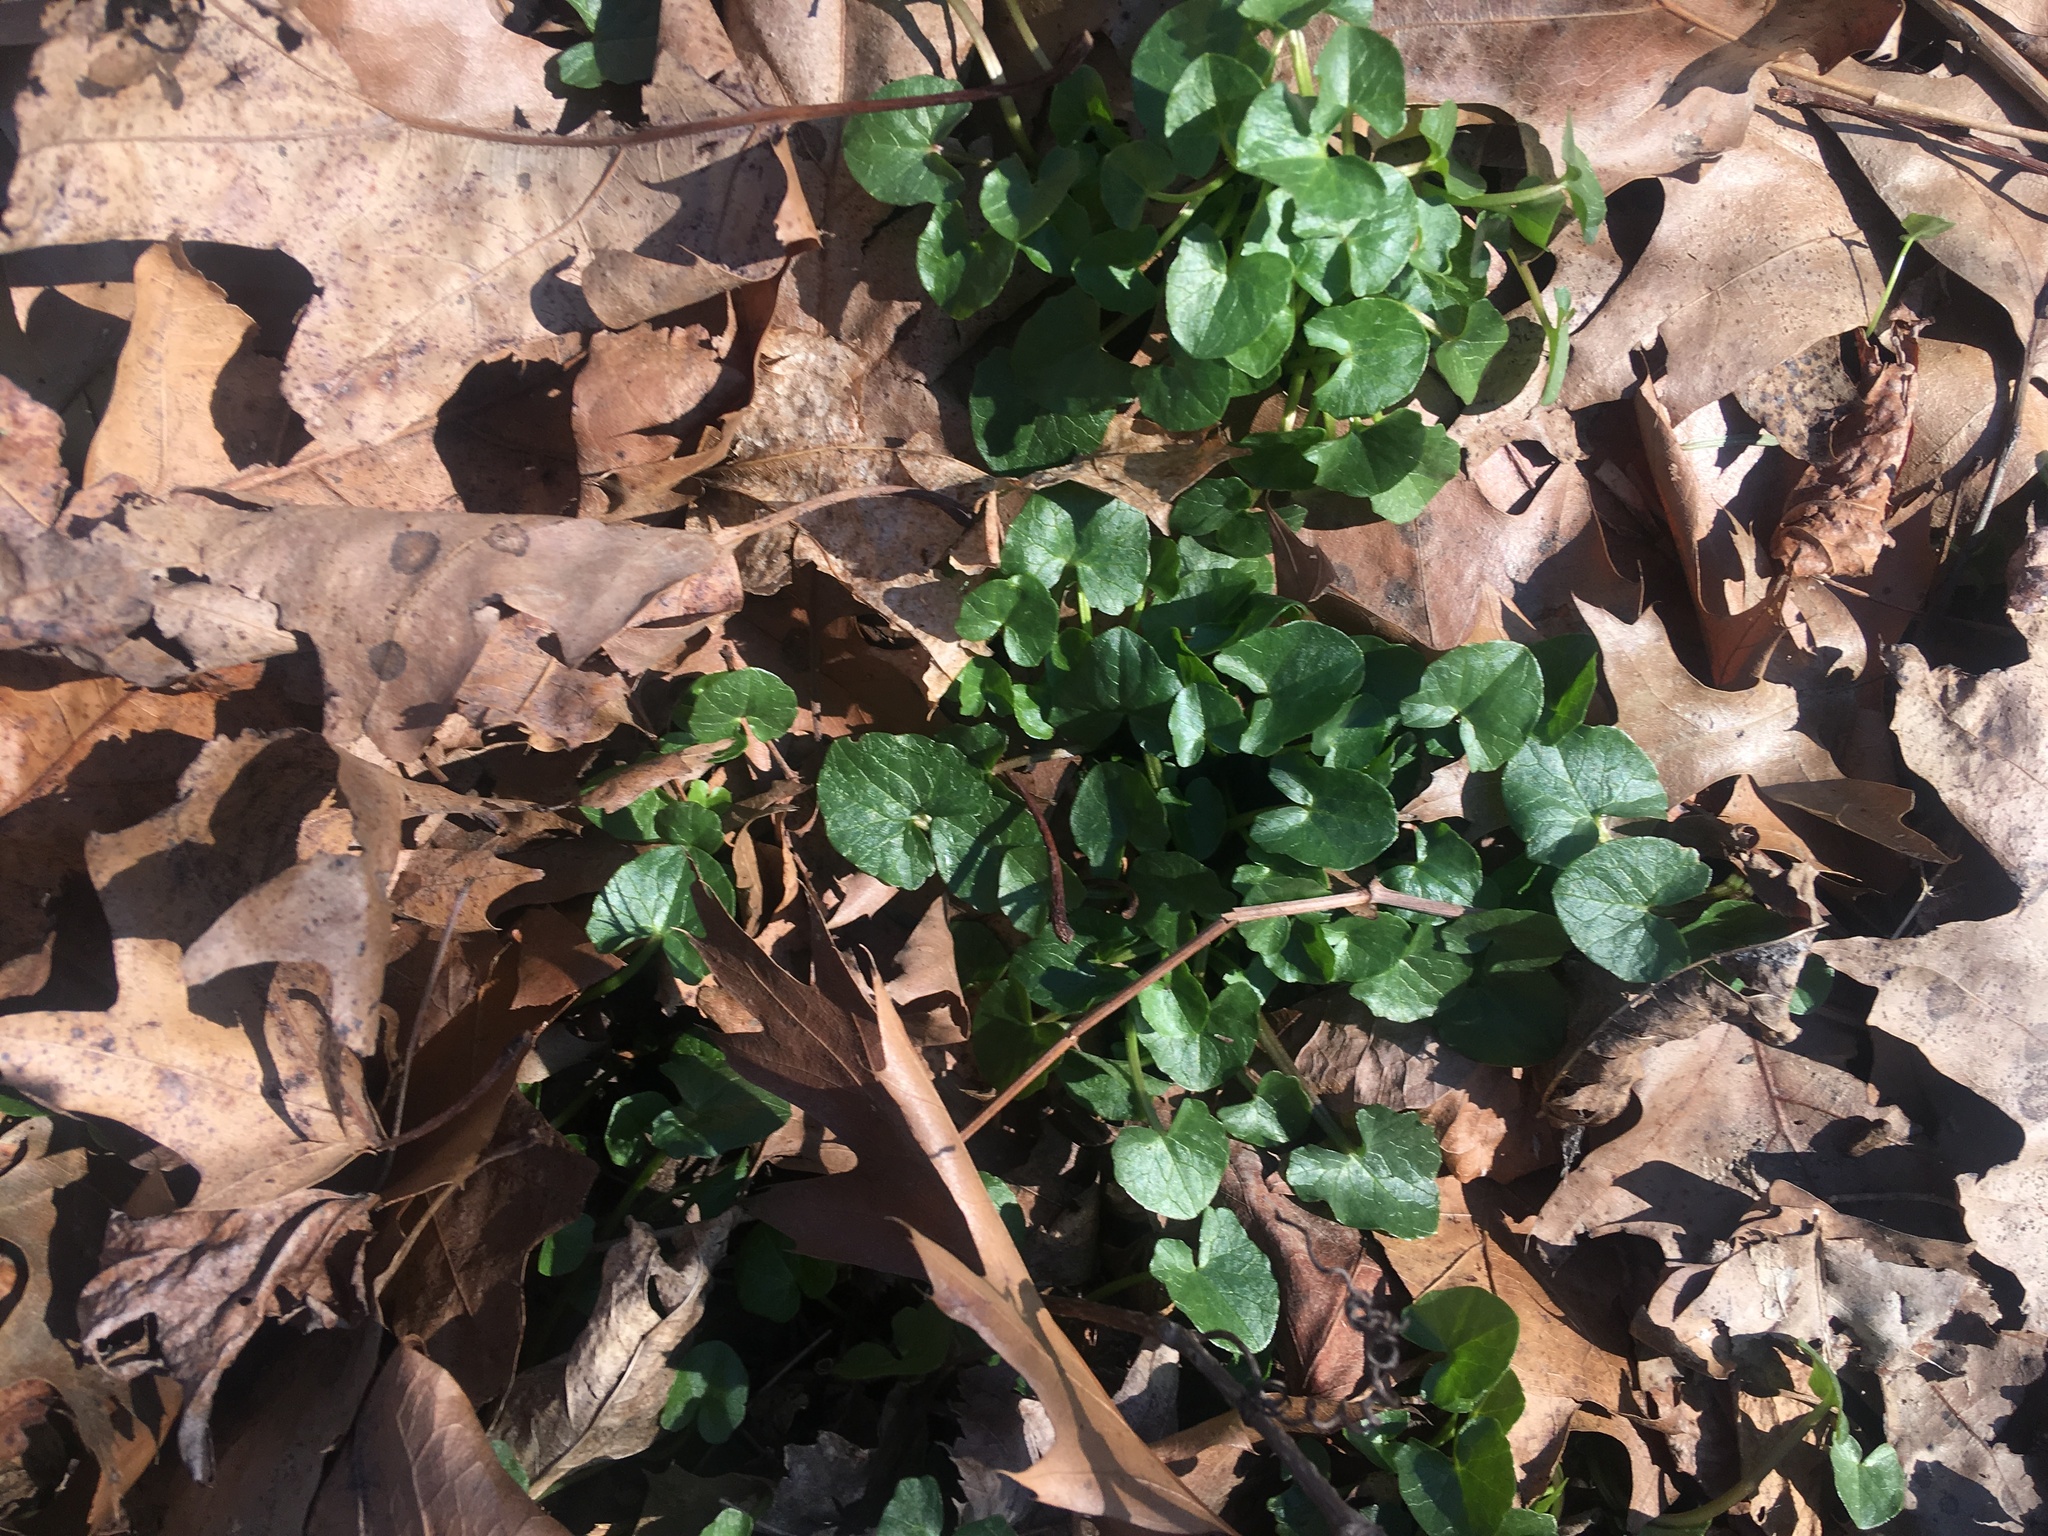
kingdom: Plantae
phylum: Tracheophyta
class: Magnoliopsida
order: Ranunculales
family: Ranunculaceae
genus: Ficaria
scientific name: Ficaria verna
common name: Lesser celandine
